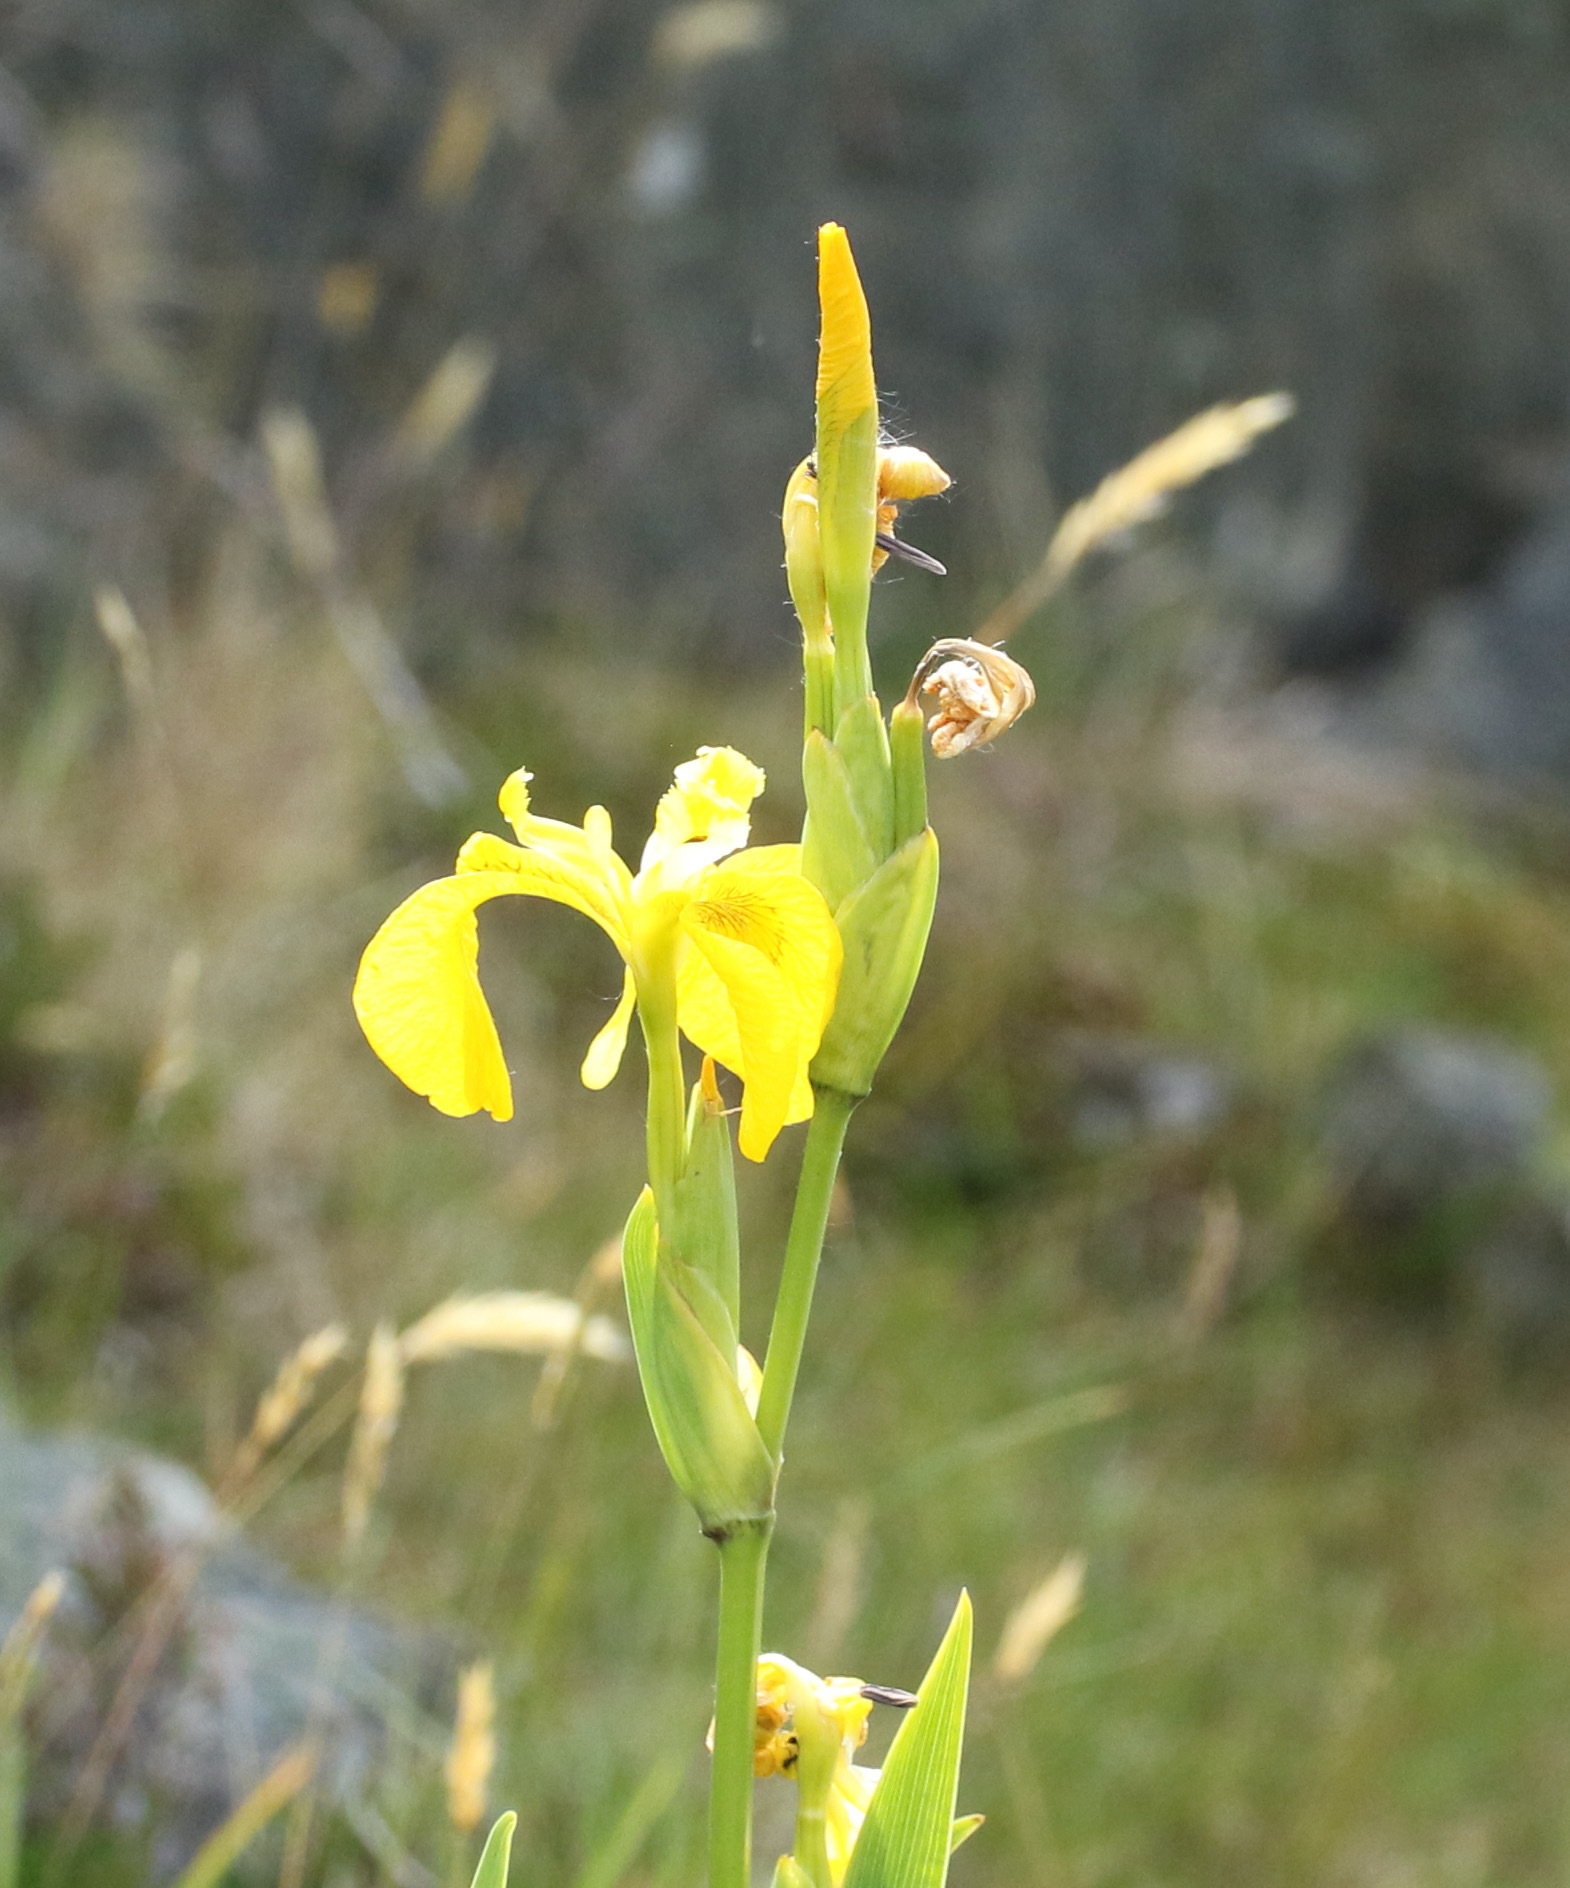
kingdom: Plantae
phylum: Tracheophyta
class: Liliopsida
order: Asparagales
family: Iridaceae
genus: Iris
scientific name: Iris pseudacorus
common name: Yellow flag
